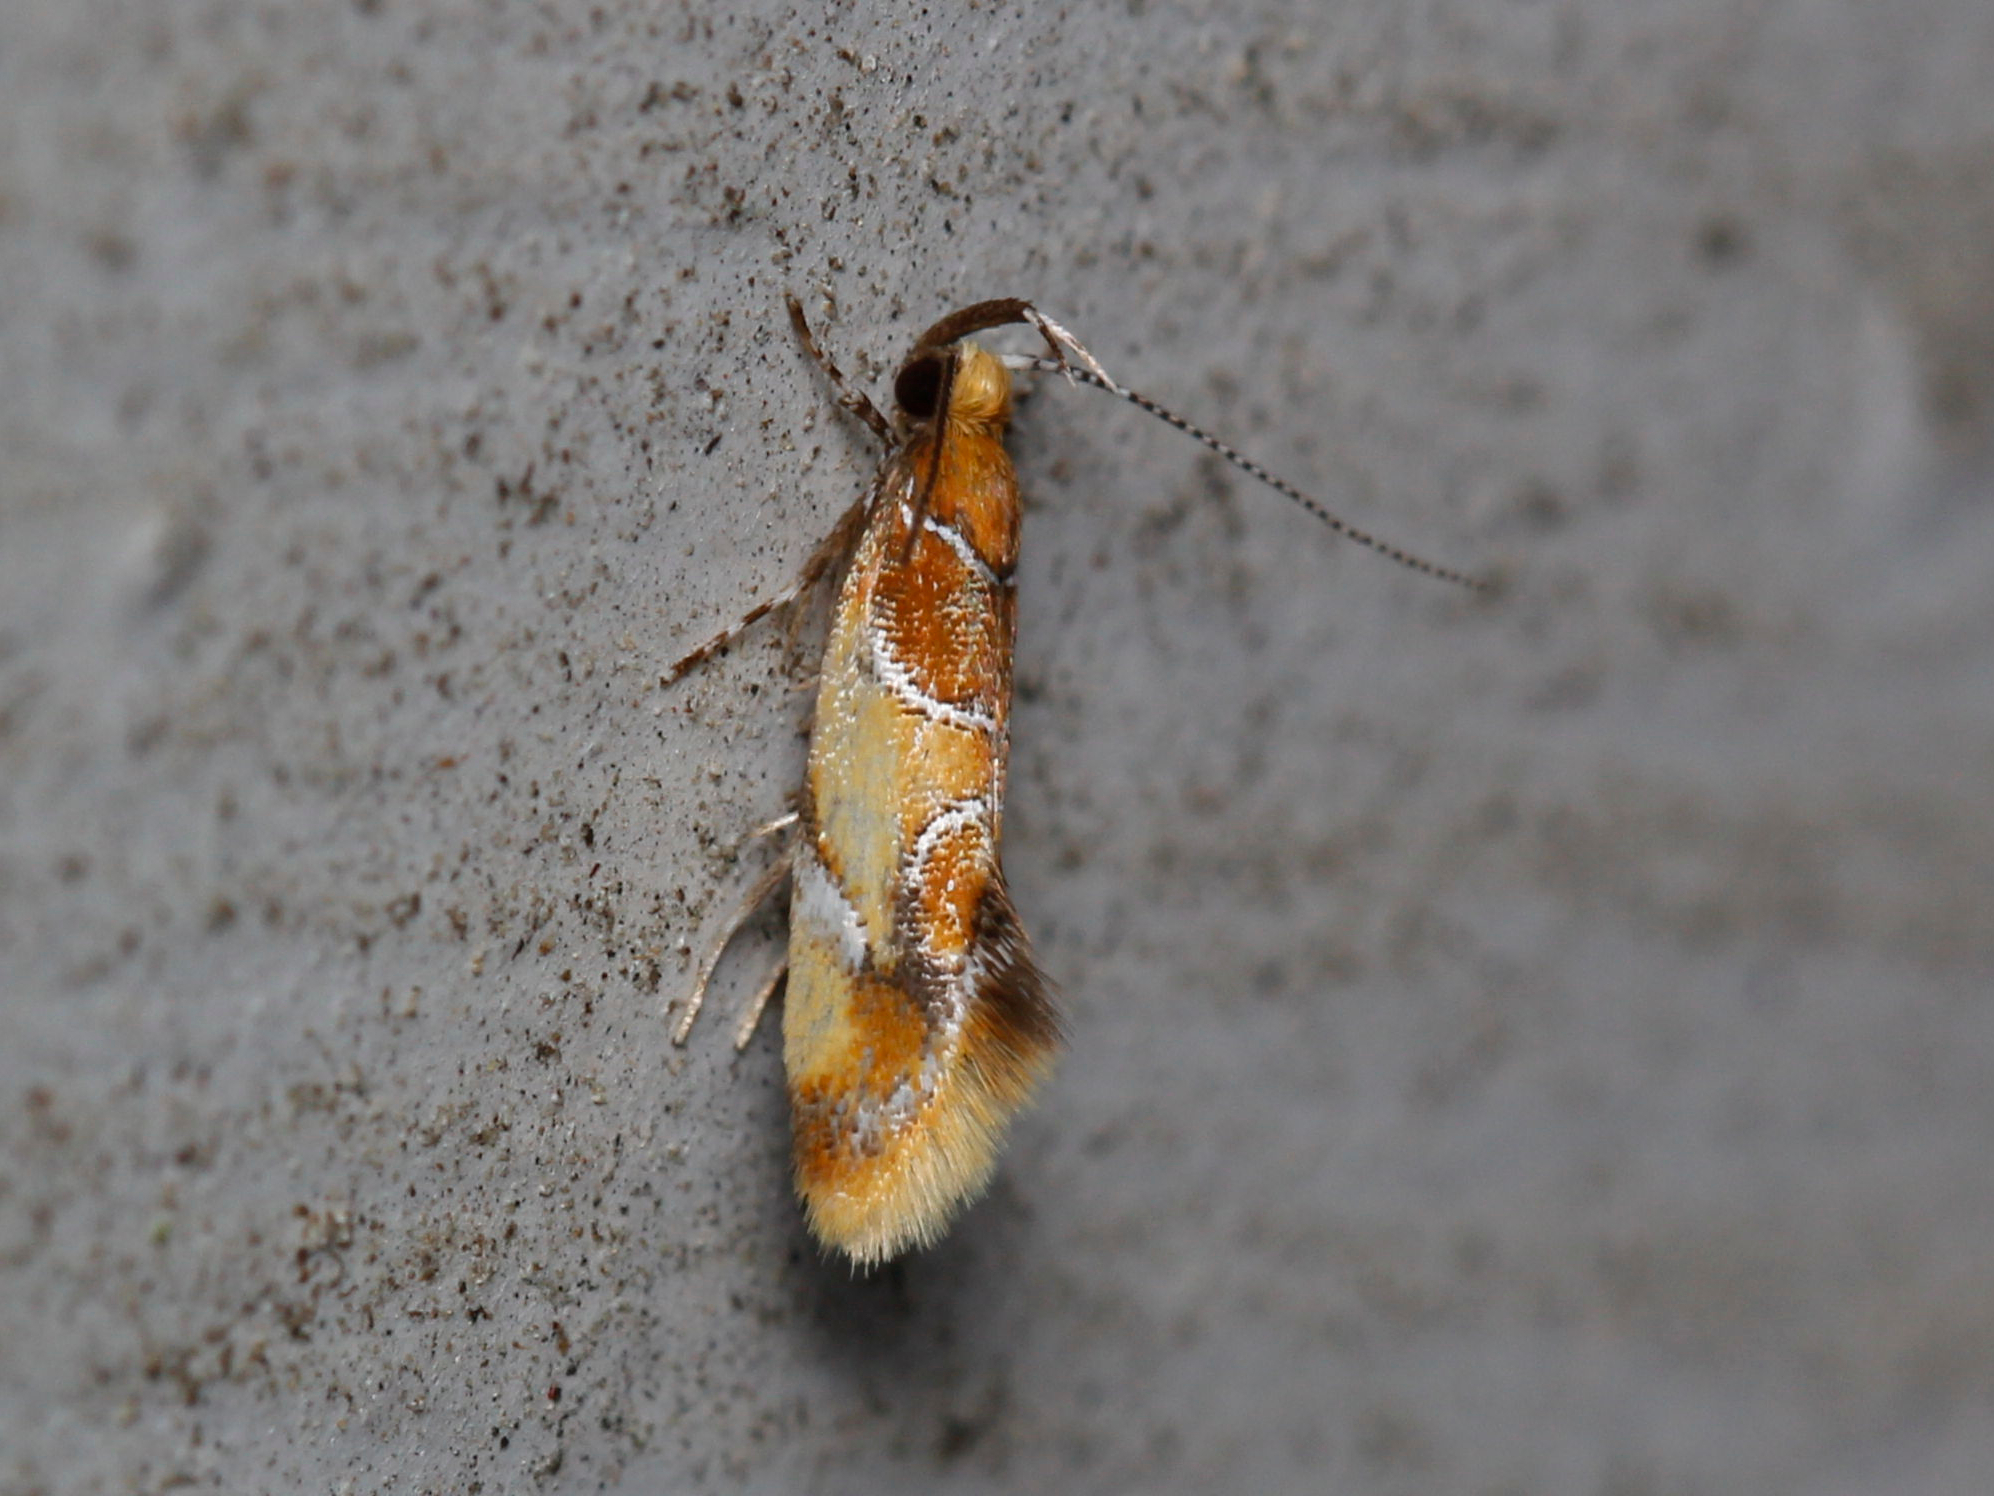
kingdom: Animalia
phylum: Arthropoda
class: Insecta
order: Lepidoptera
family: Oecophoridae
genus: Callima
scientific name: Callima argenticinctella
